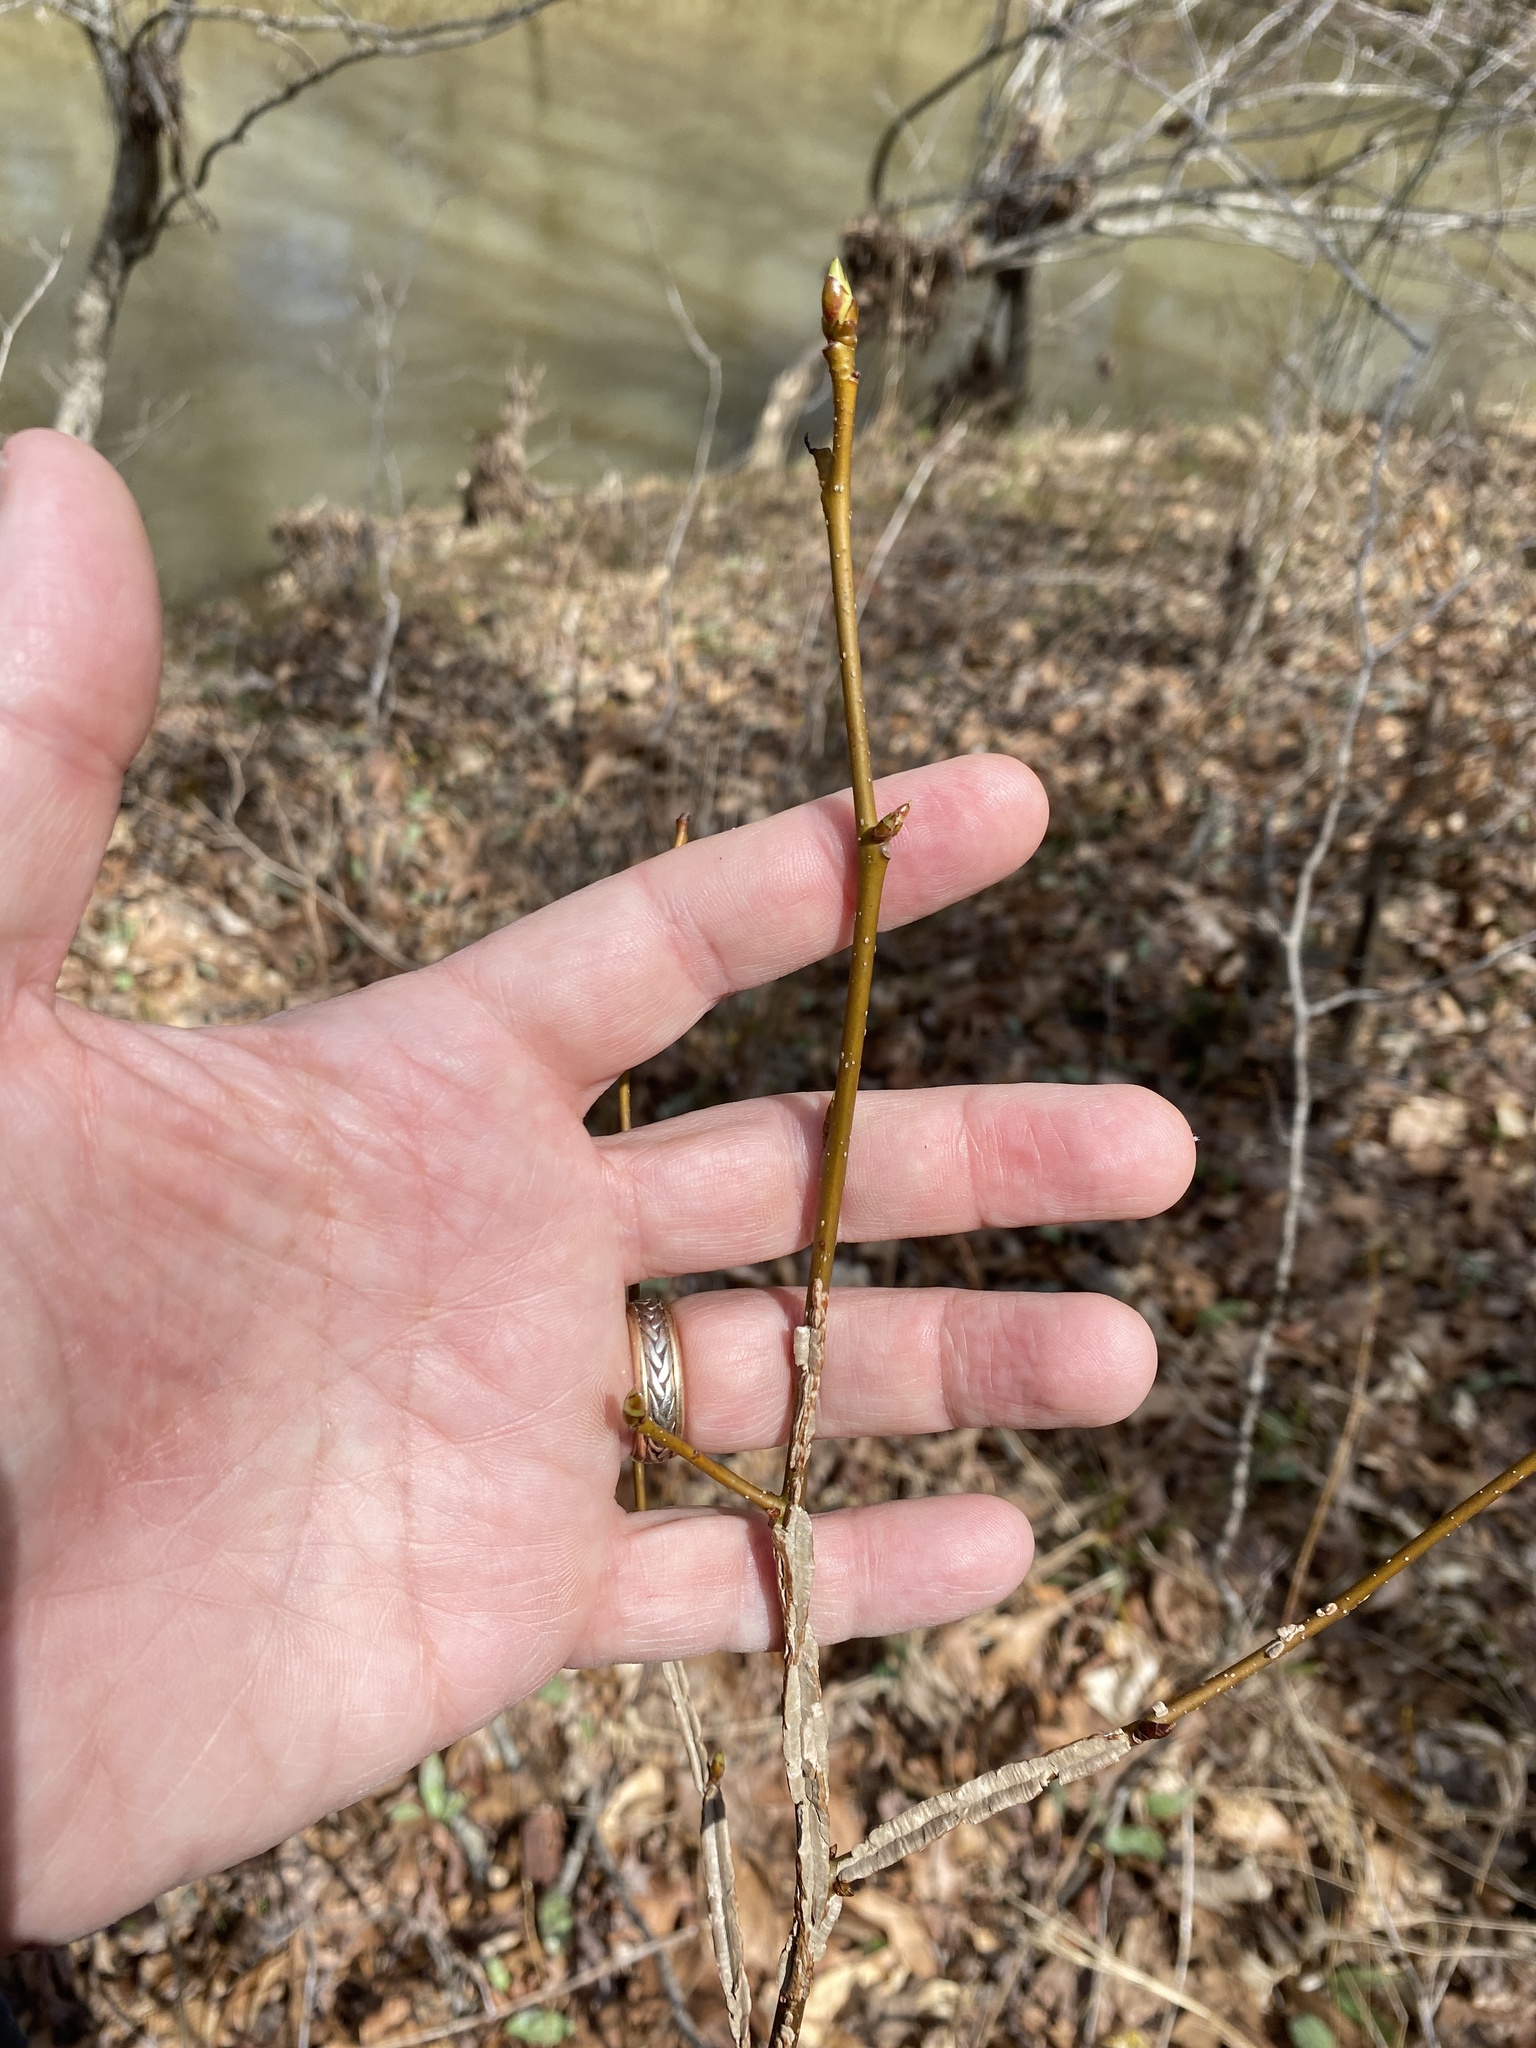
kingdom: Plantae
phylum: Tracheophyta
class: Magnoliopsida
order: Saxifragales
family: Altingiaceae
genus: Liquidambar
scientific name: Liquidambar styraciflua
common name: Sweet gum
